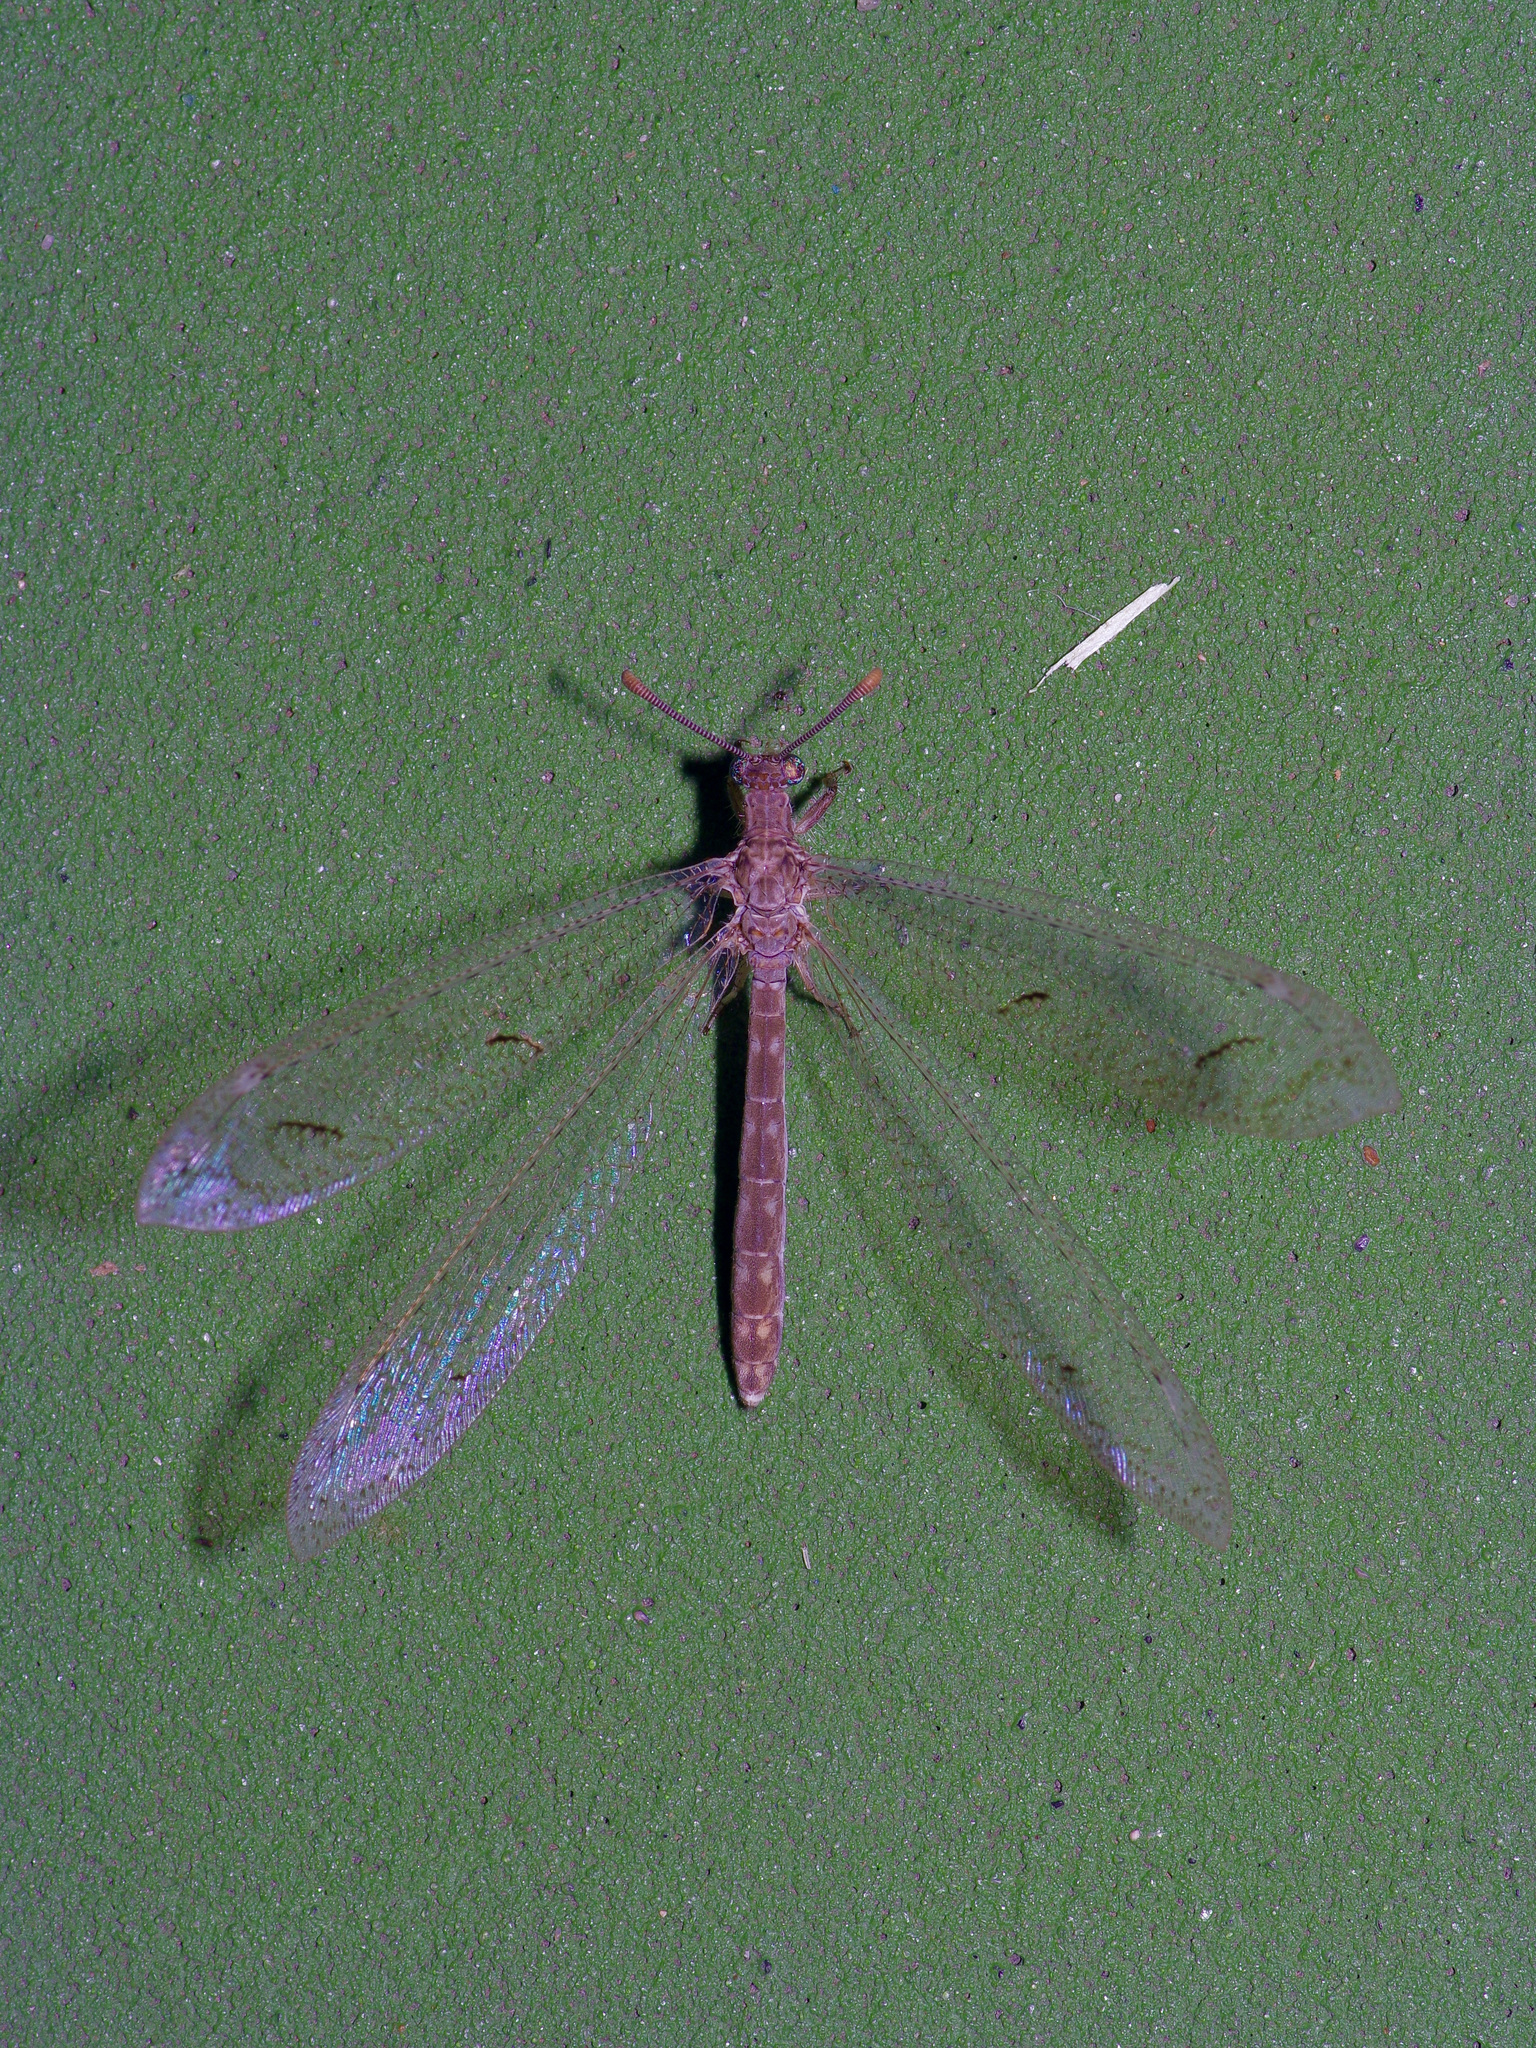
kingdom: Animalia
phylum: Arthropoda
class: Insecta
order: Neuroptera
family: Myrmeleontidae
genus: Euptilon
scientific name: Euptilon ornatum
